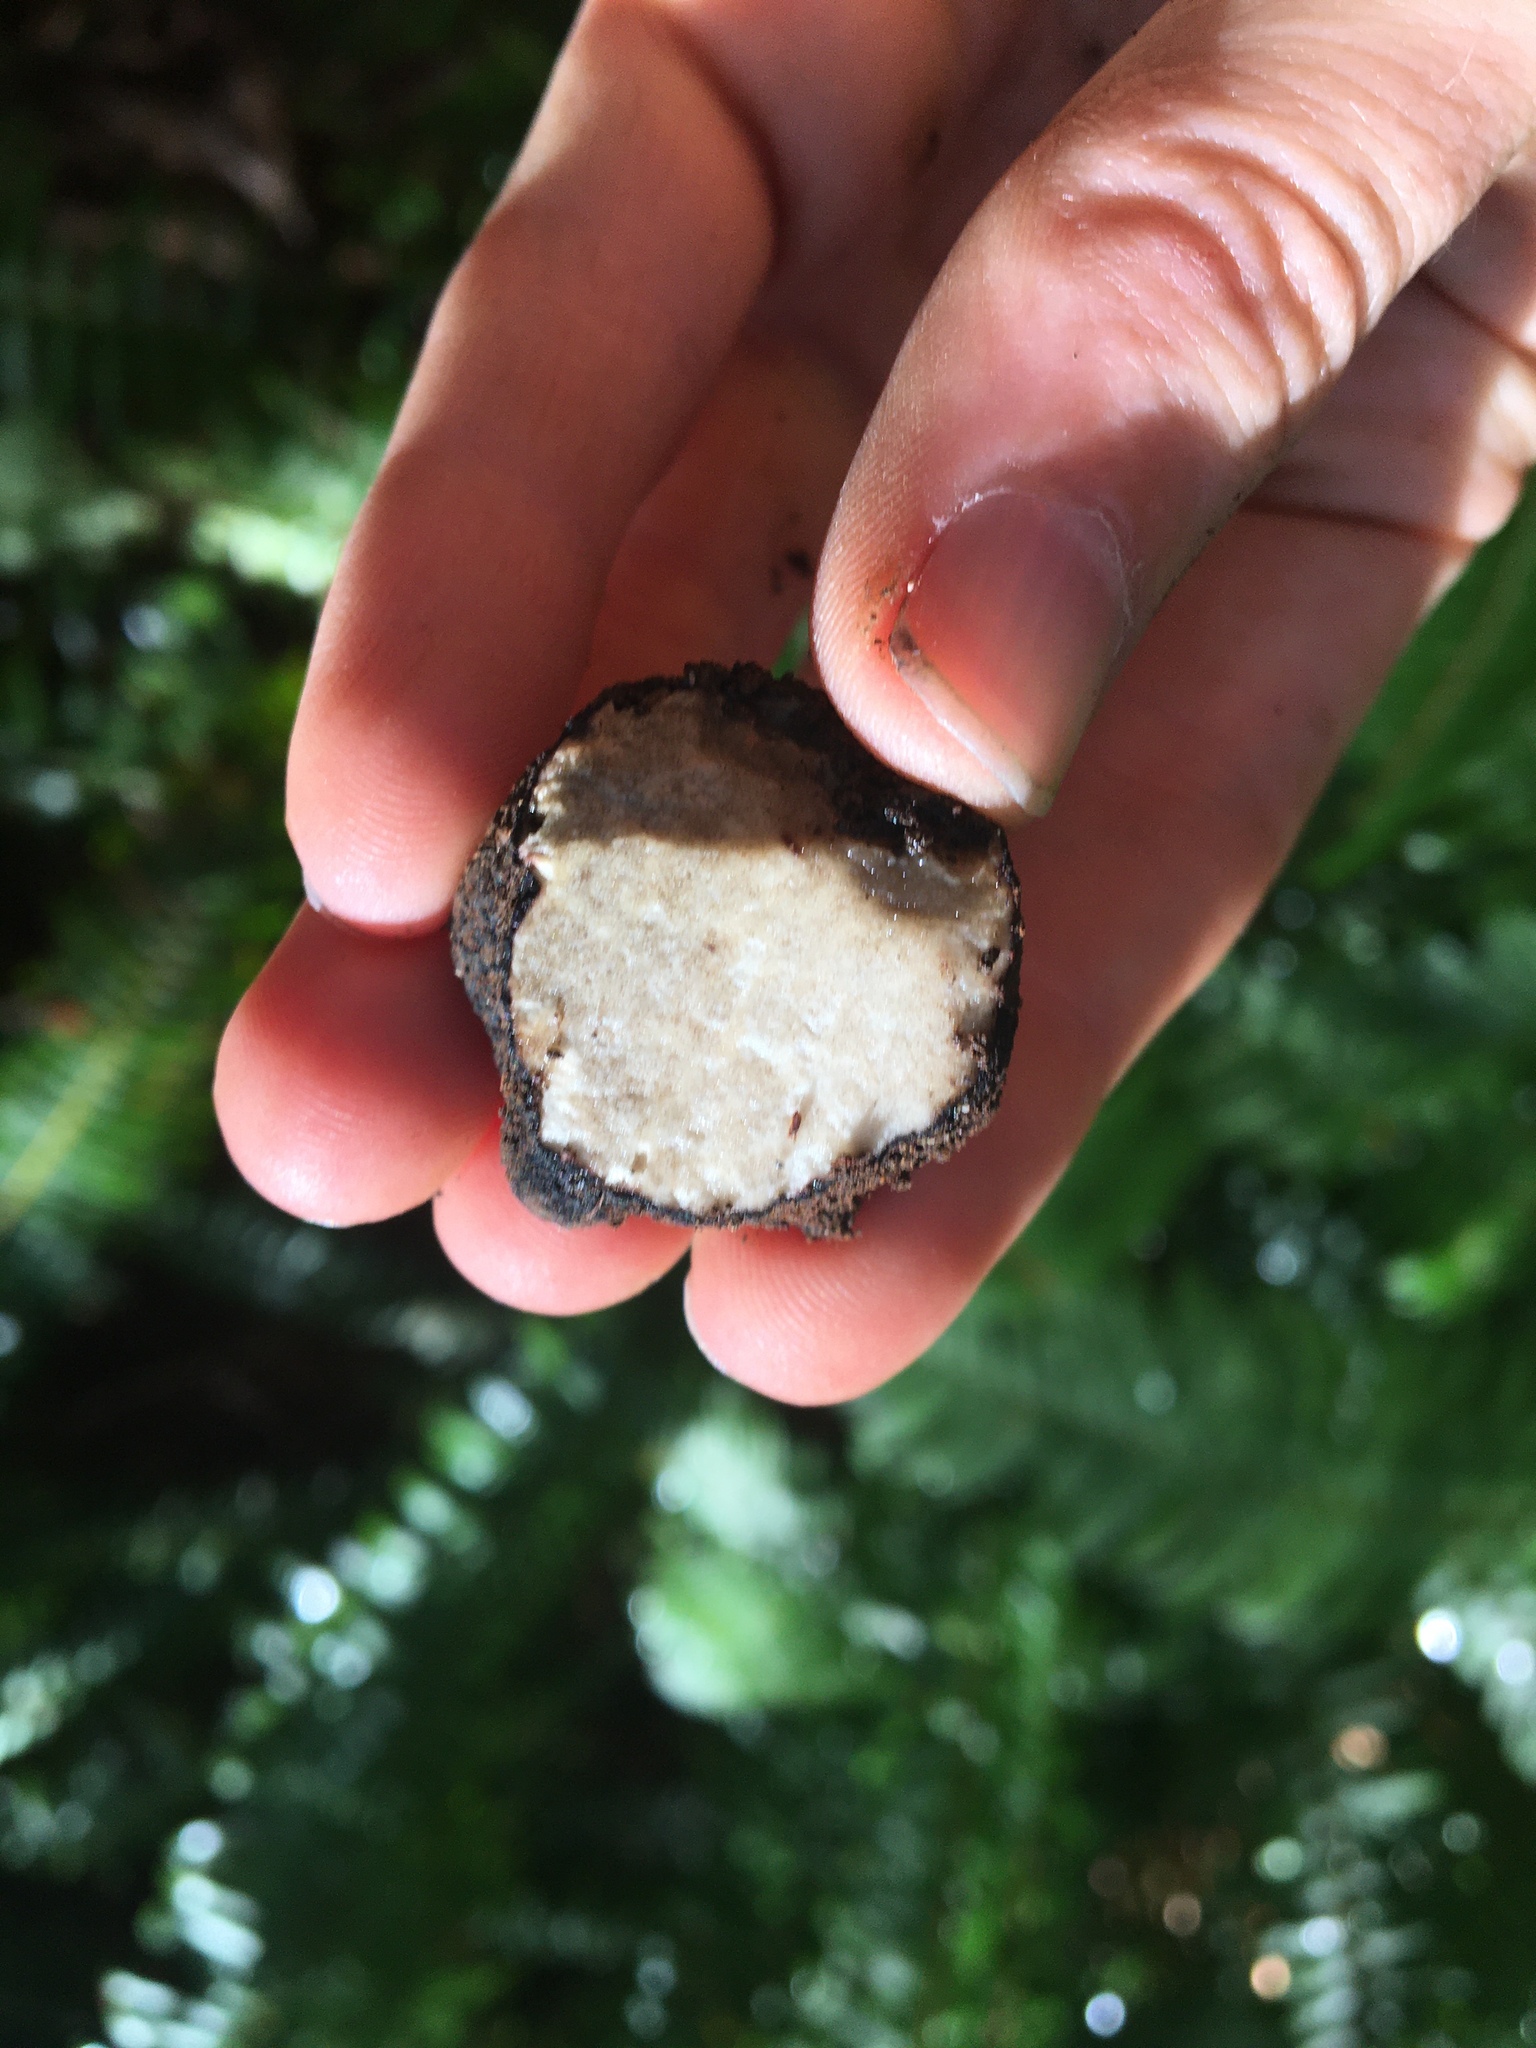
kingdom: Fungi
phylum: Ascomycota
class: Pezizomycetes
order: Pezizales
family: Morchellaceae
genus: Leucangium
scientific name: Leucangium carthusianum
